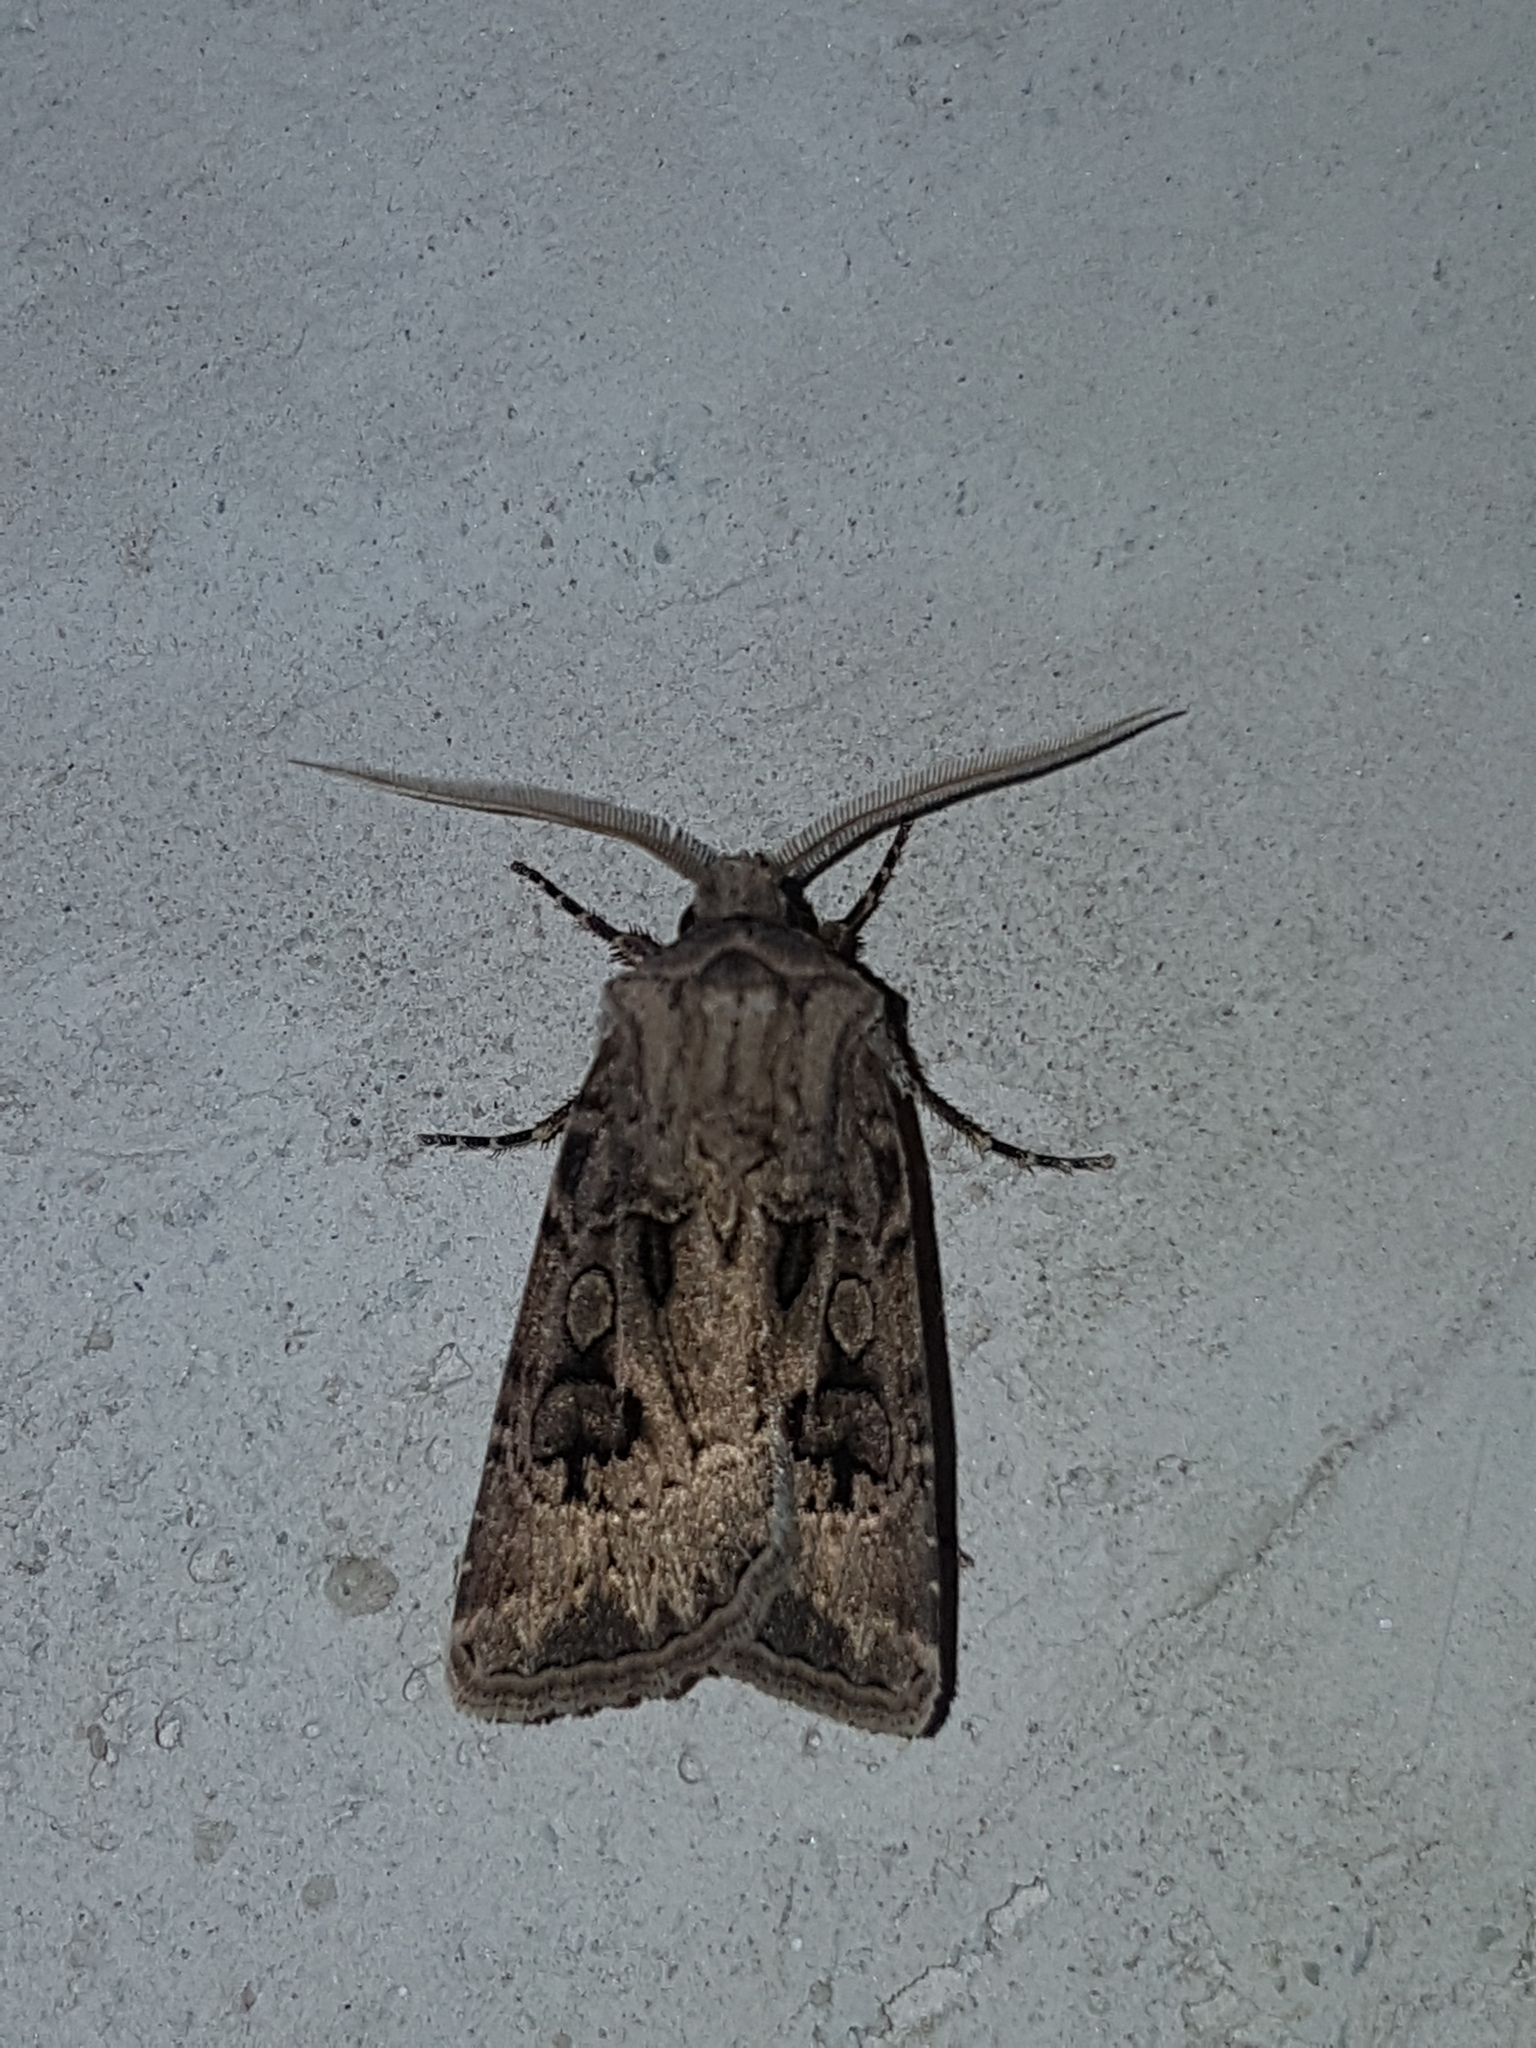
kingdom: Animalia
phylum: Arthropoda
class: Insecta
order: Lepidoptera
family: Noctuidae
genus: Agrotis
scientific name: Agrotis bigramma
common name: Great dart
